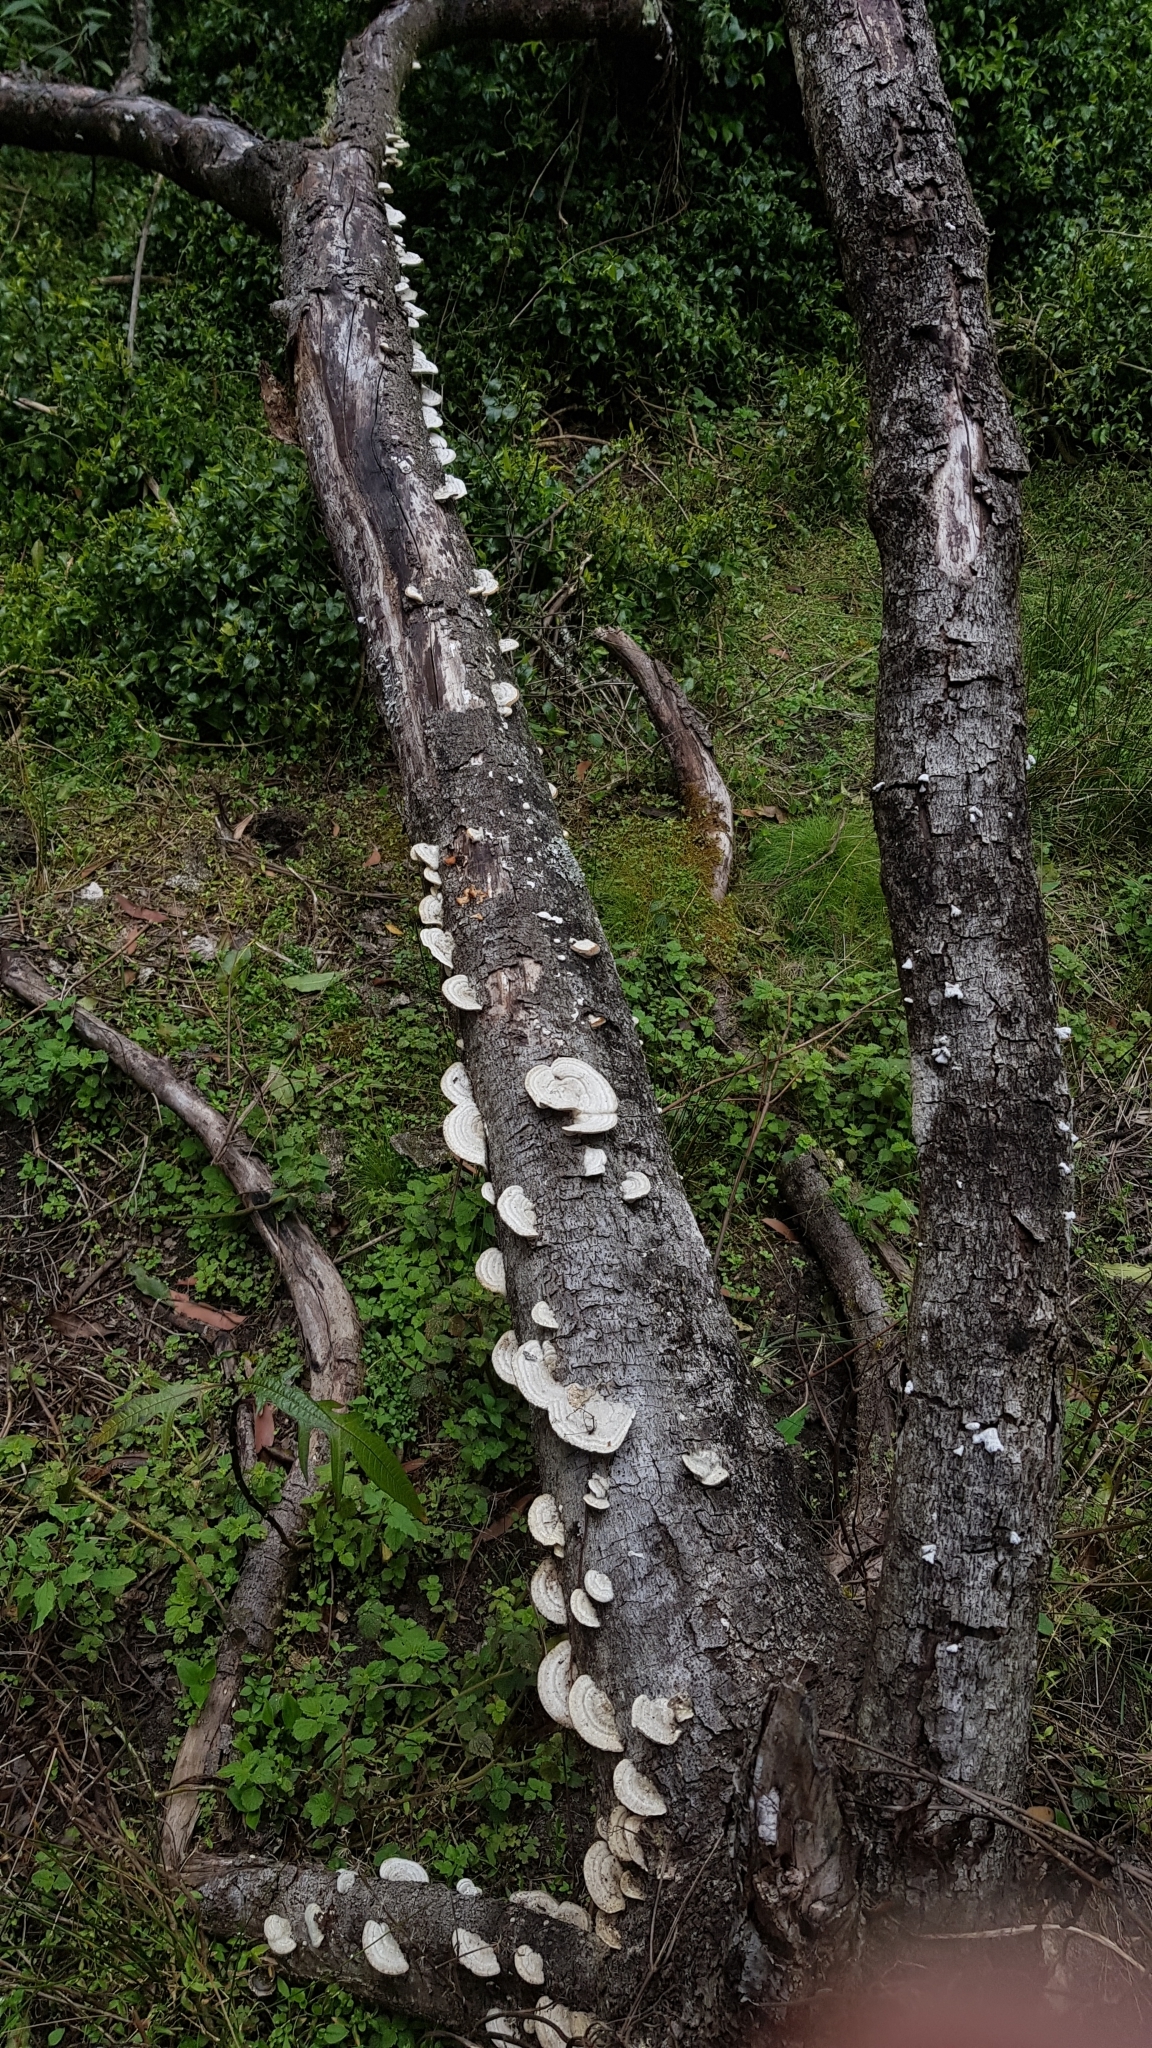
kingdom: Fungi
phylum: Basidiomycota
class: Agaricomycetes
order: Polyporales
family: Polyporaceae
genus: Trametes
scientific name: Trametes hirsuta
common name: Hairy bracket
